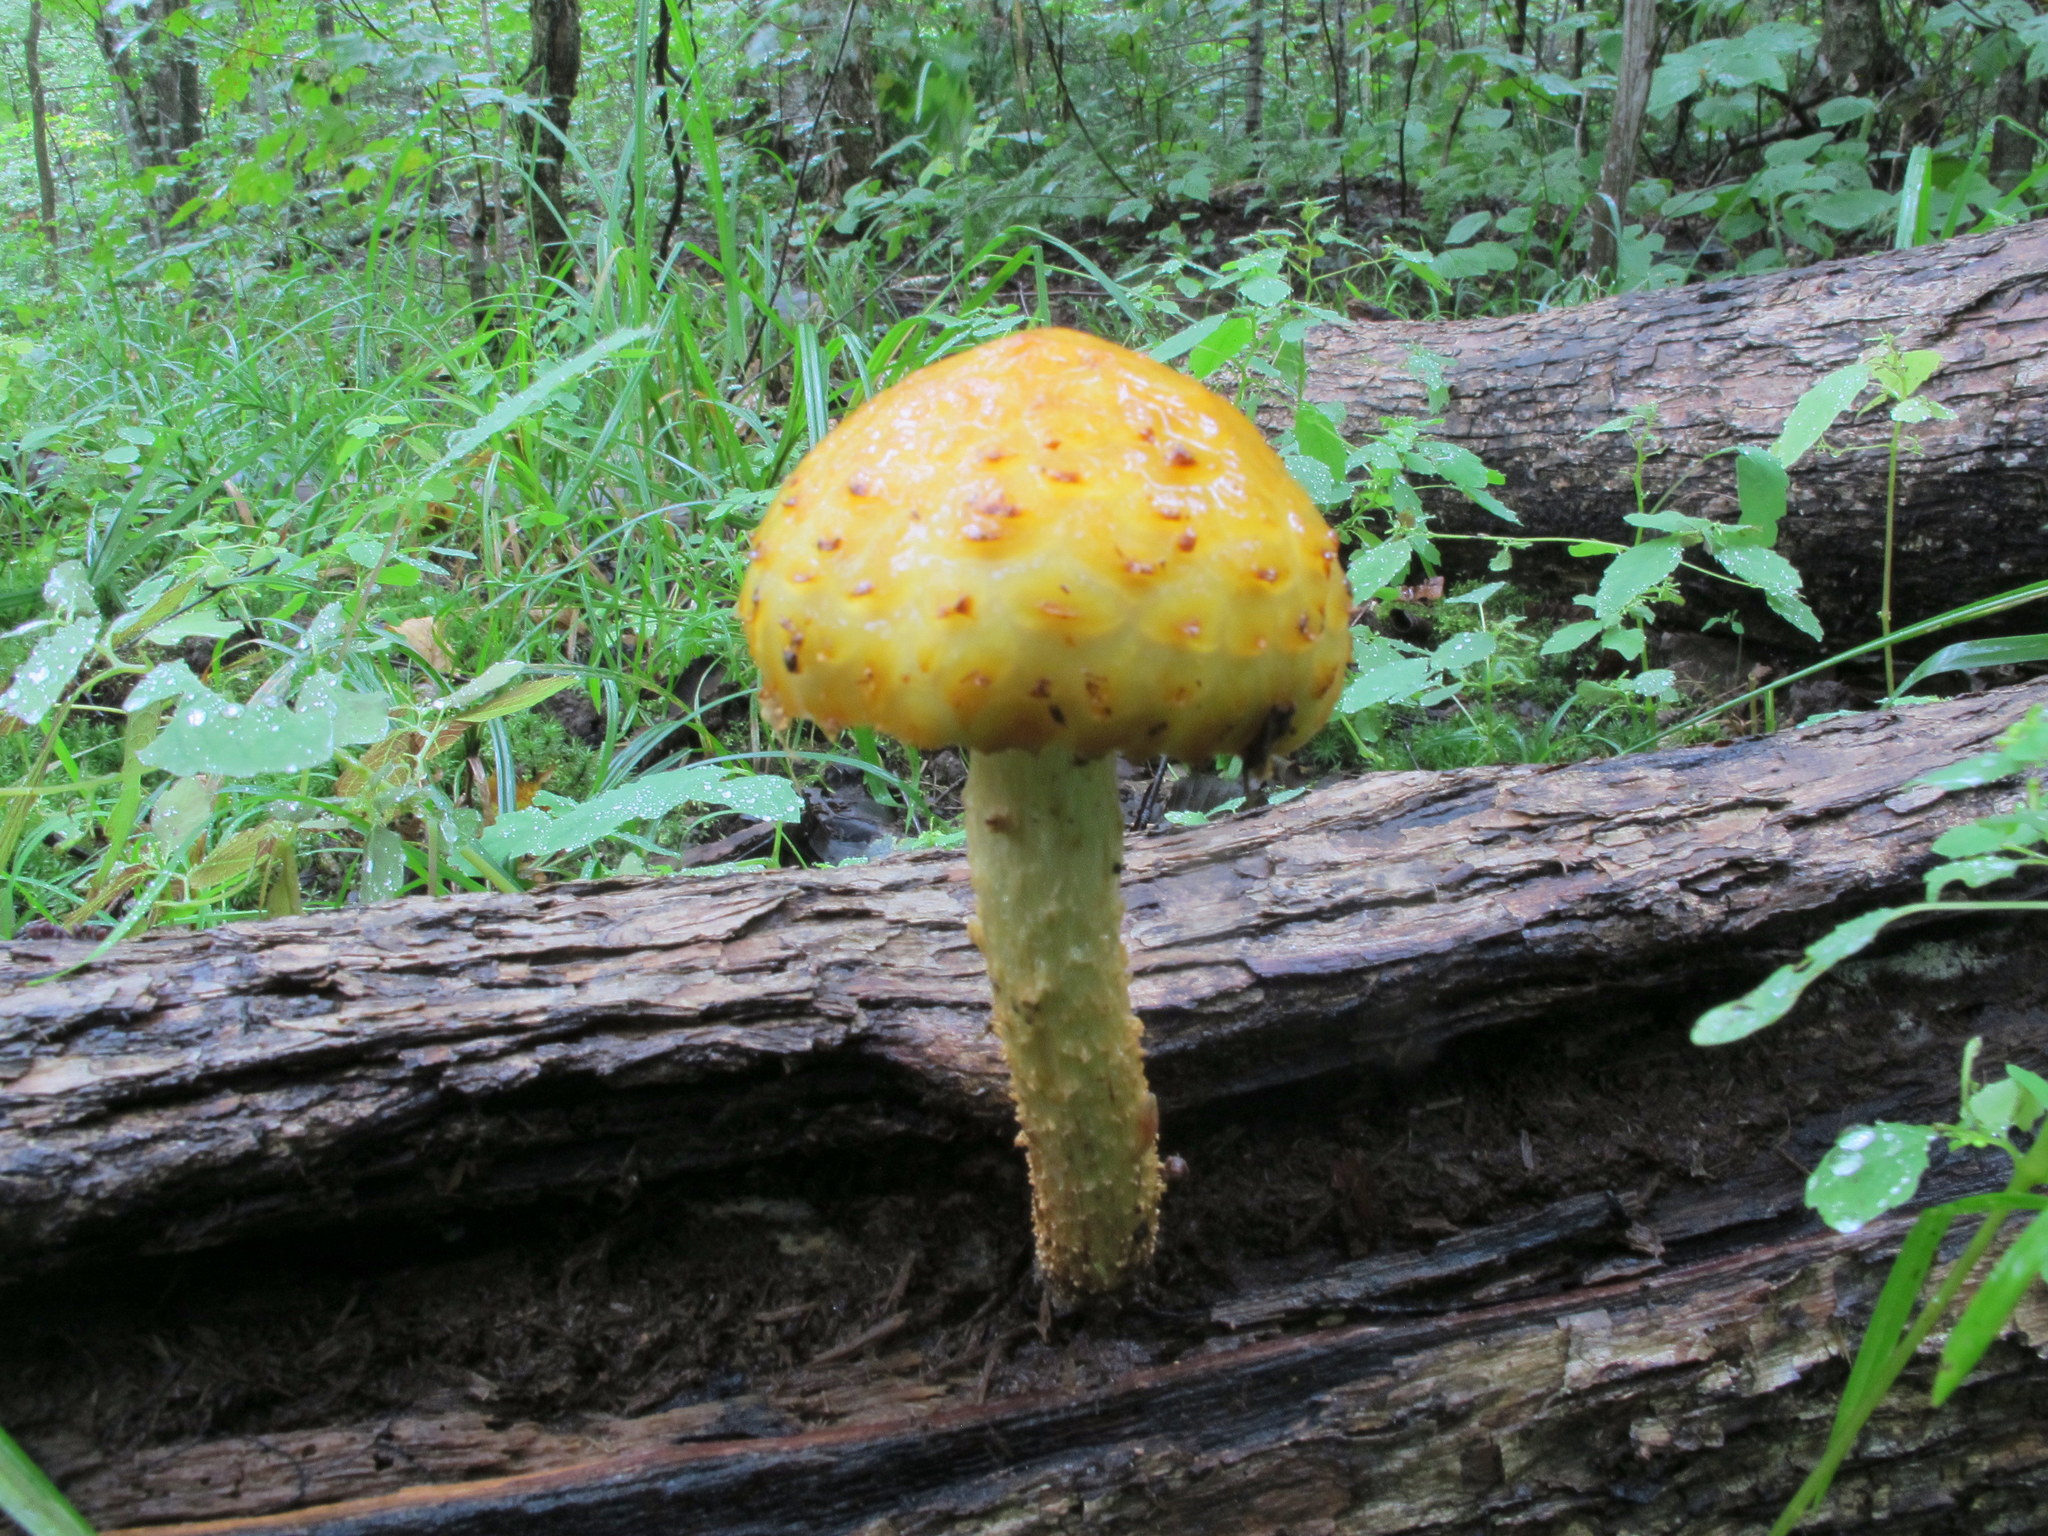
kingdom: Fungi
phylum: Basidiomycota
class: Agaricomycetes
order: Agaricales
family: Strophariaceae
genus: Pholiota
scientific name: Pholiota aurivella
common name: Golden scalycap
